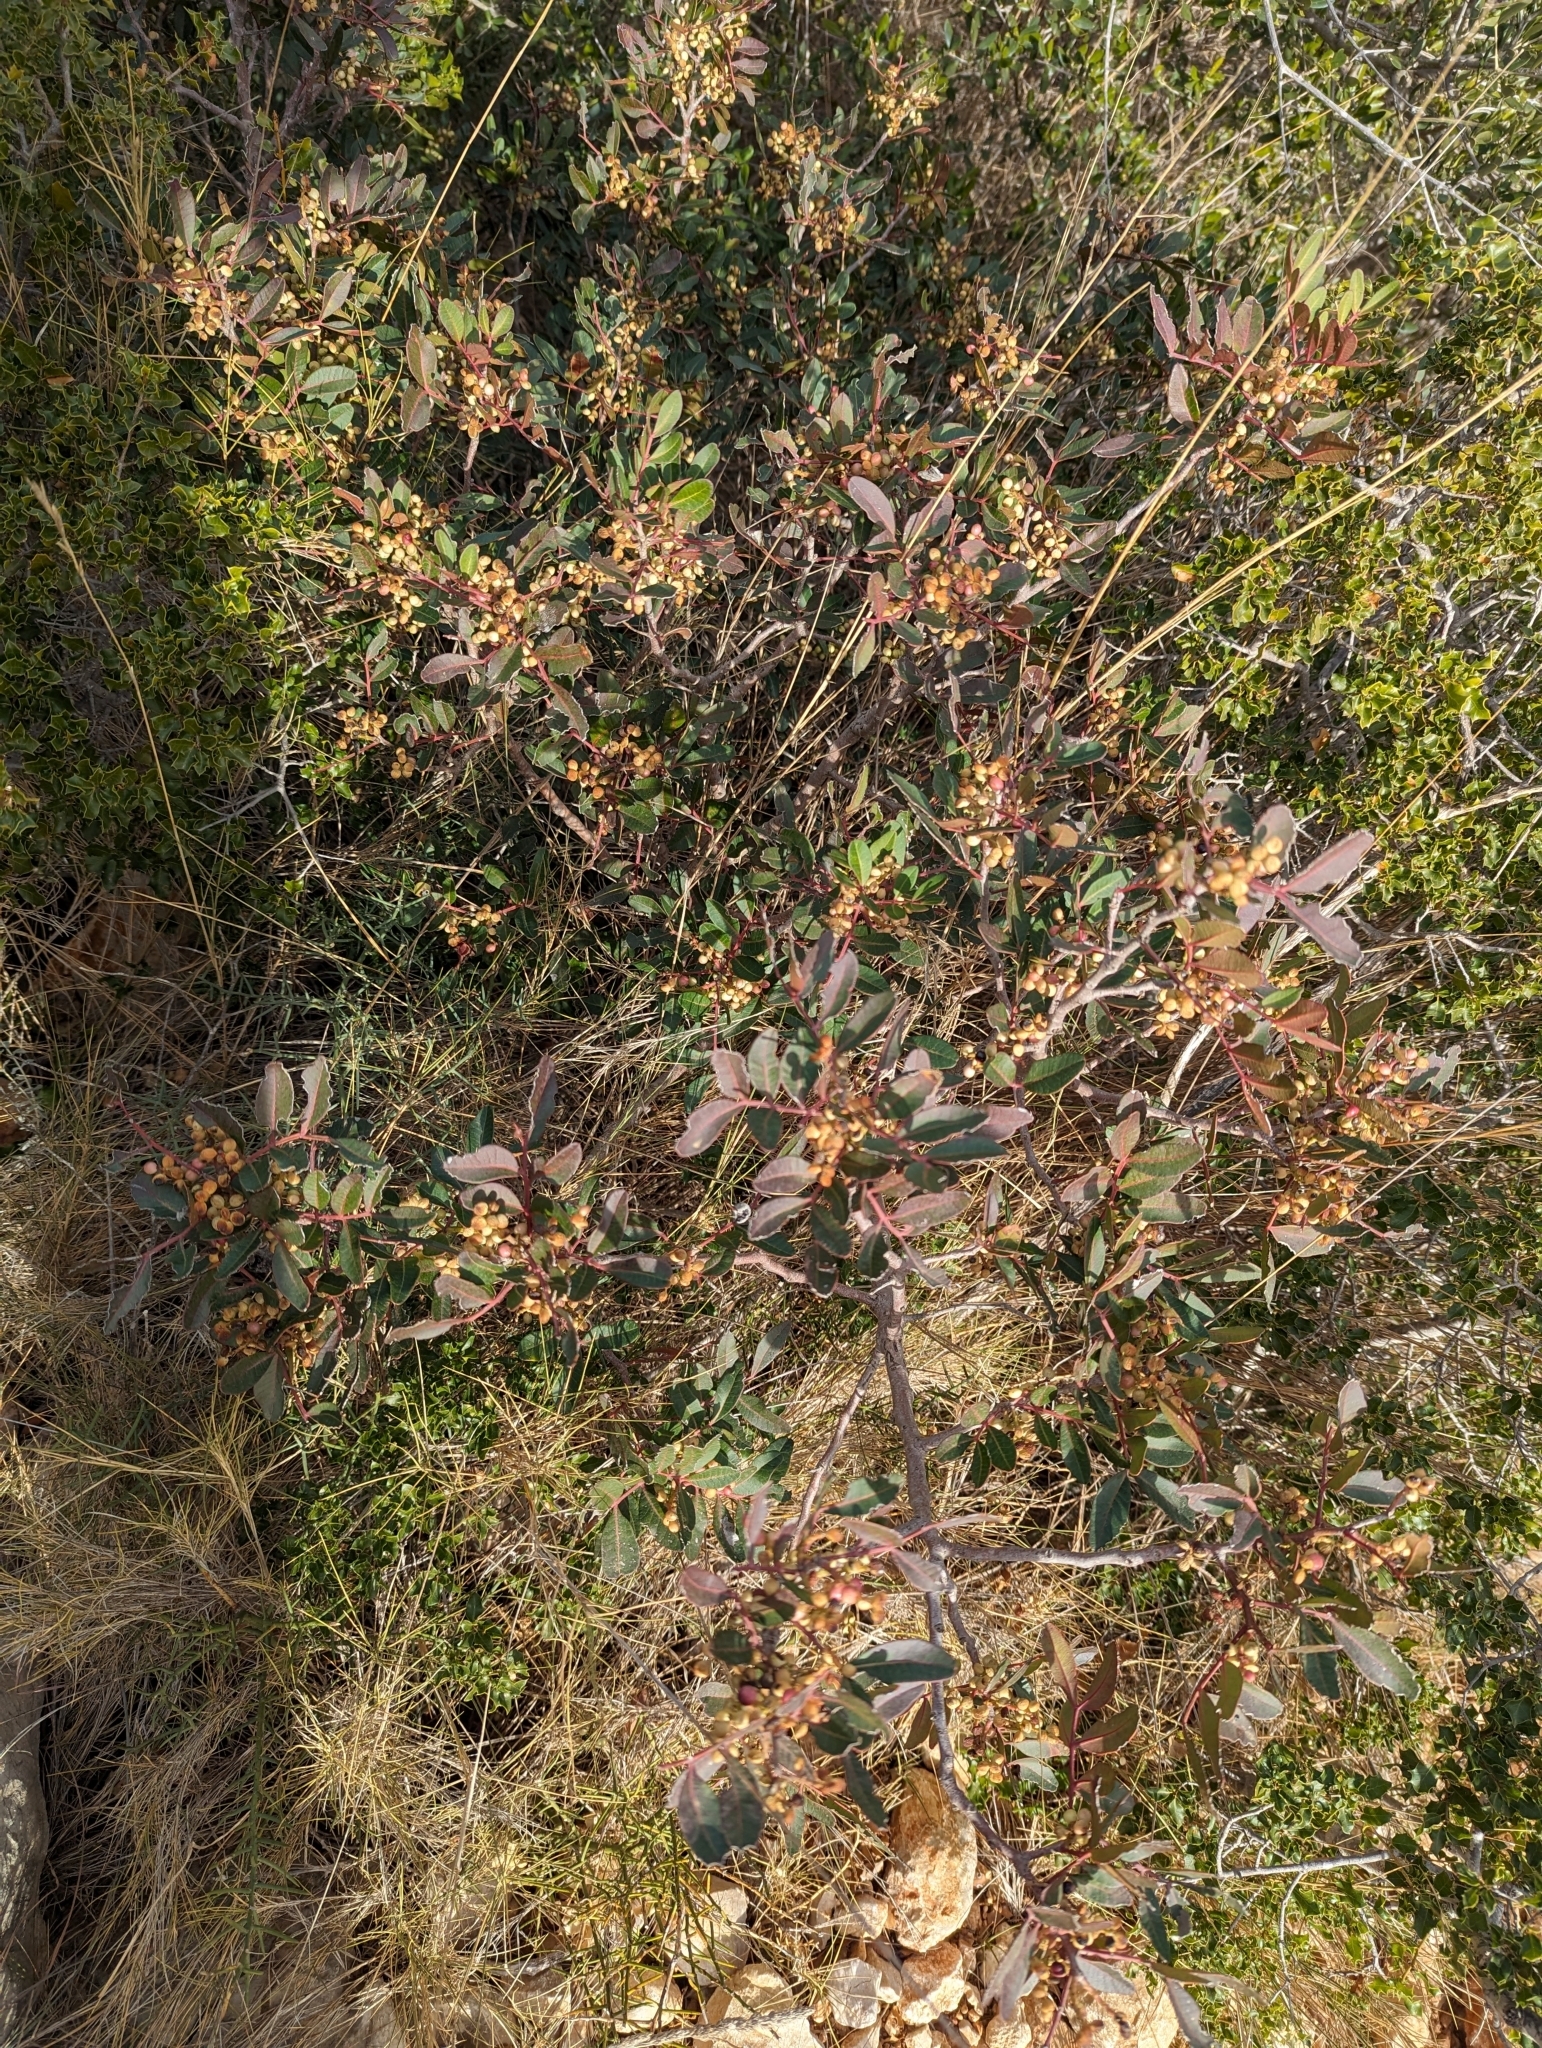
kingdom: Plantae
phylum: Tracheophyta
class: Magnoliopsida
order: Sapindales
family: Anacardiaceae
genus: Pistacia
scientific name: Pistacia lentiscus
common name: Lentisk
